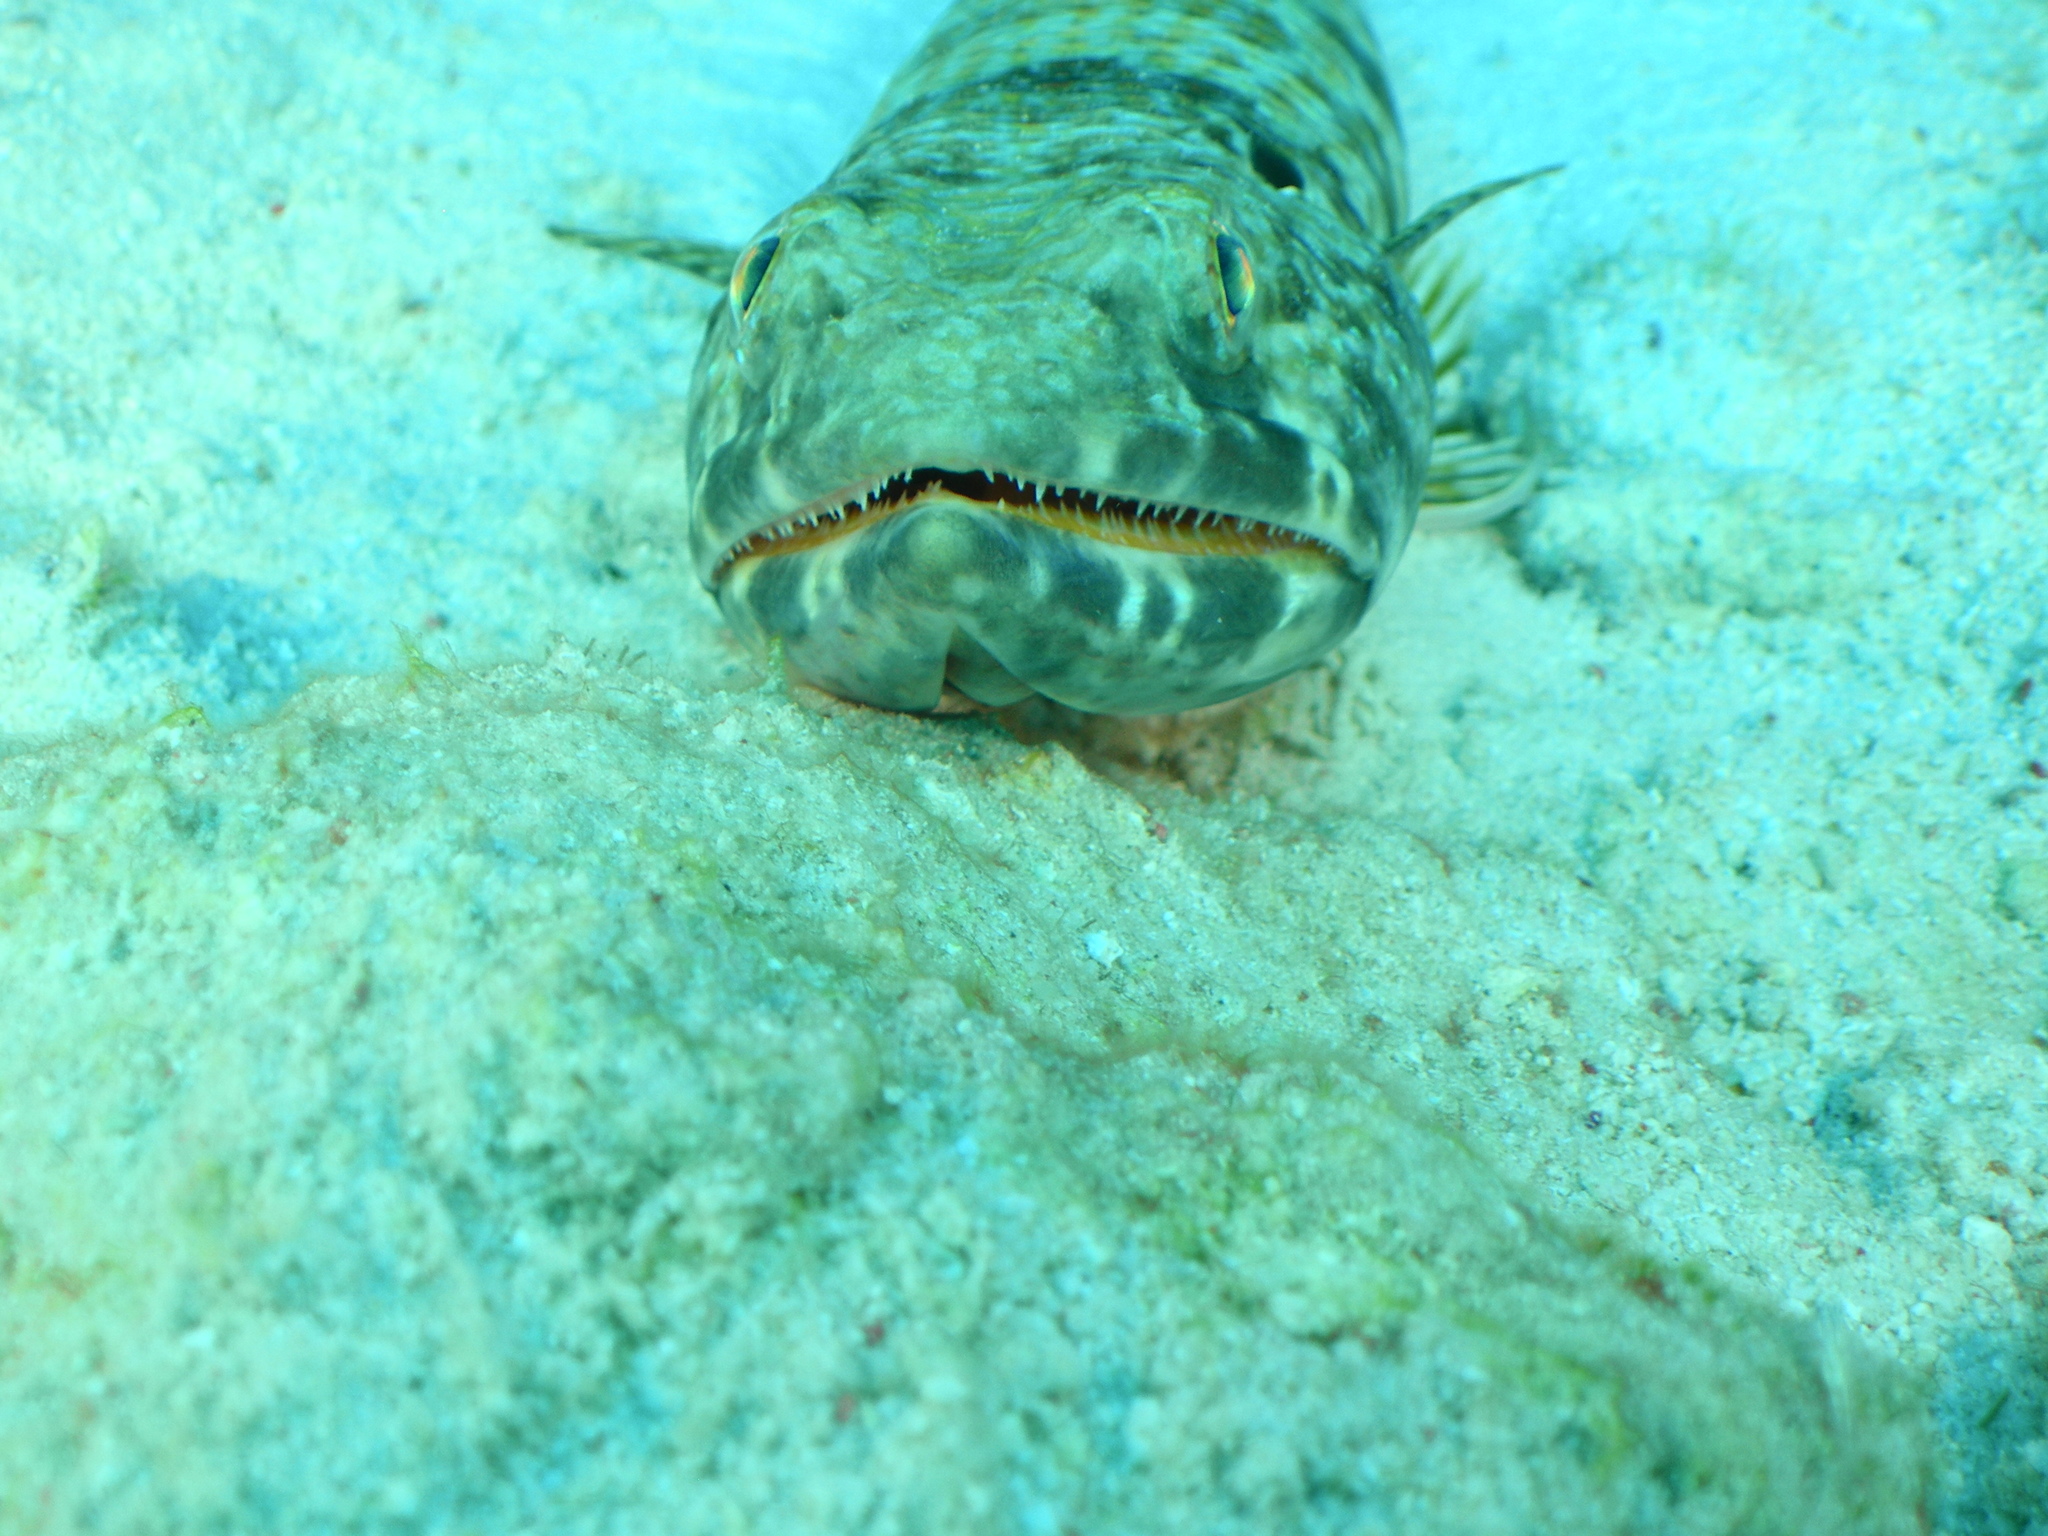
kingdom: Animalia
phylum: Chordata
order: Aulopiformes
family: Synodontidae
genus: Synodus
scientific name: Synodus intermedius
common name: Sand diver
